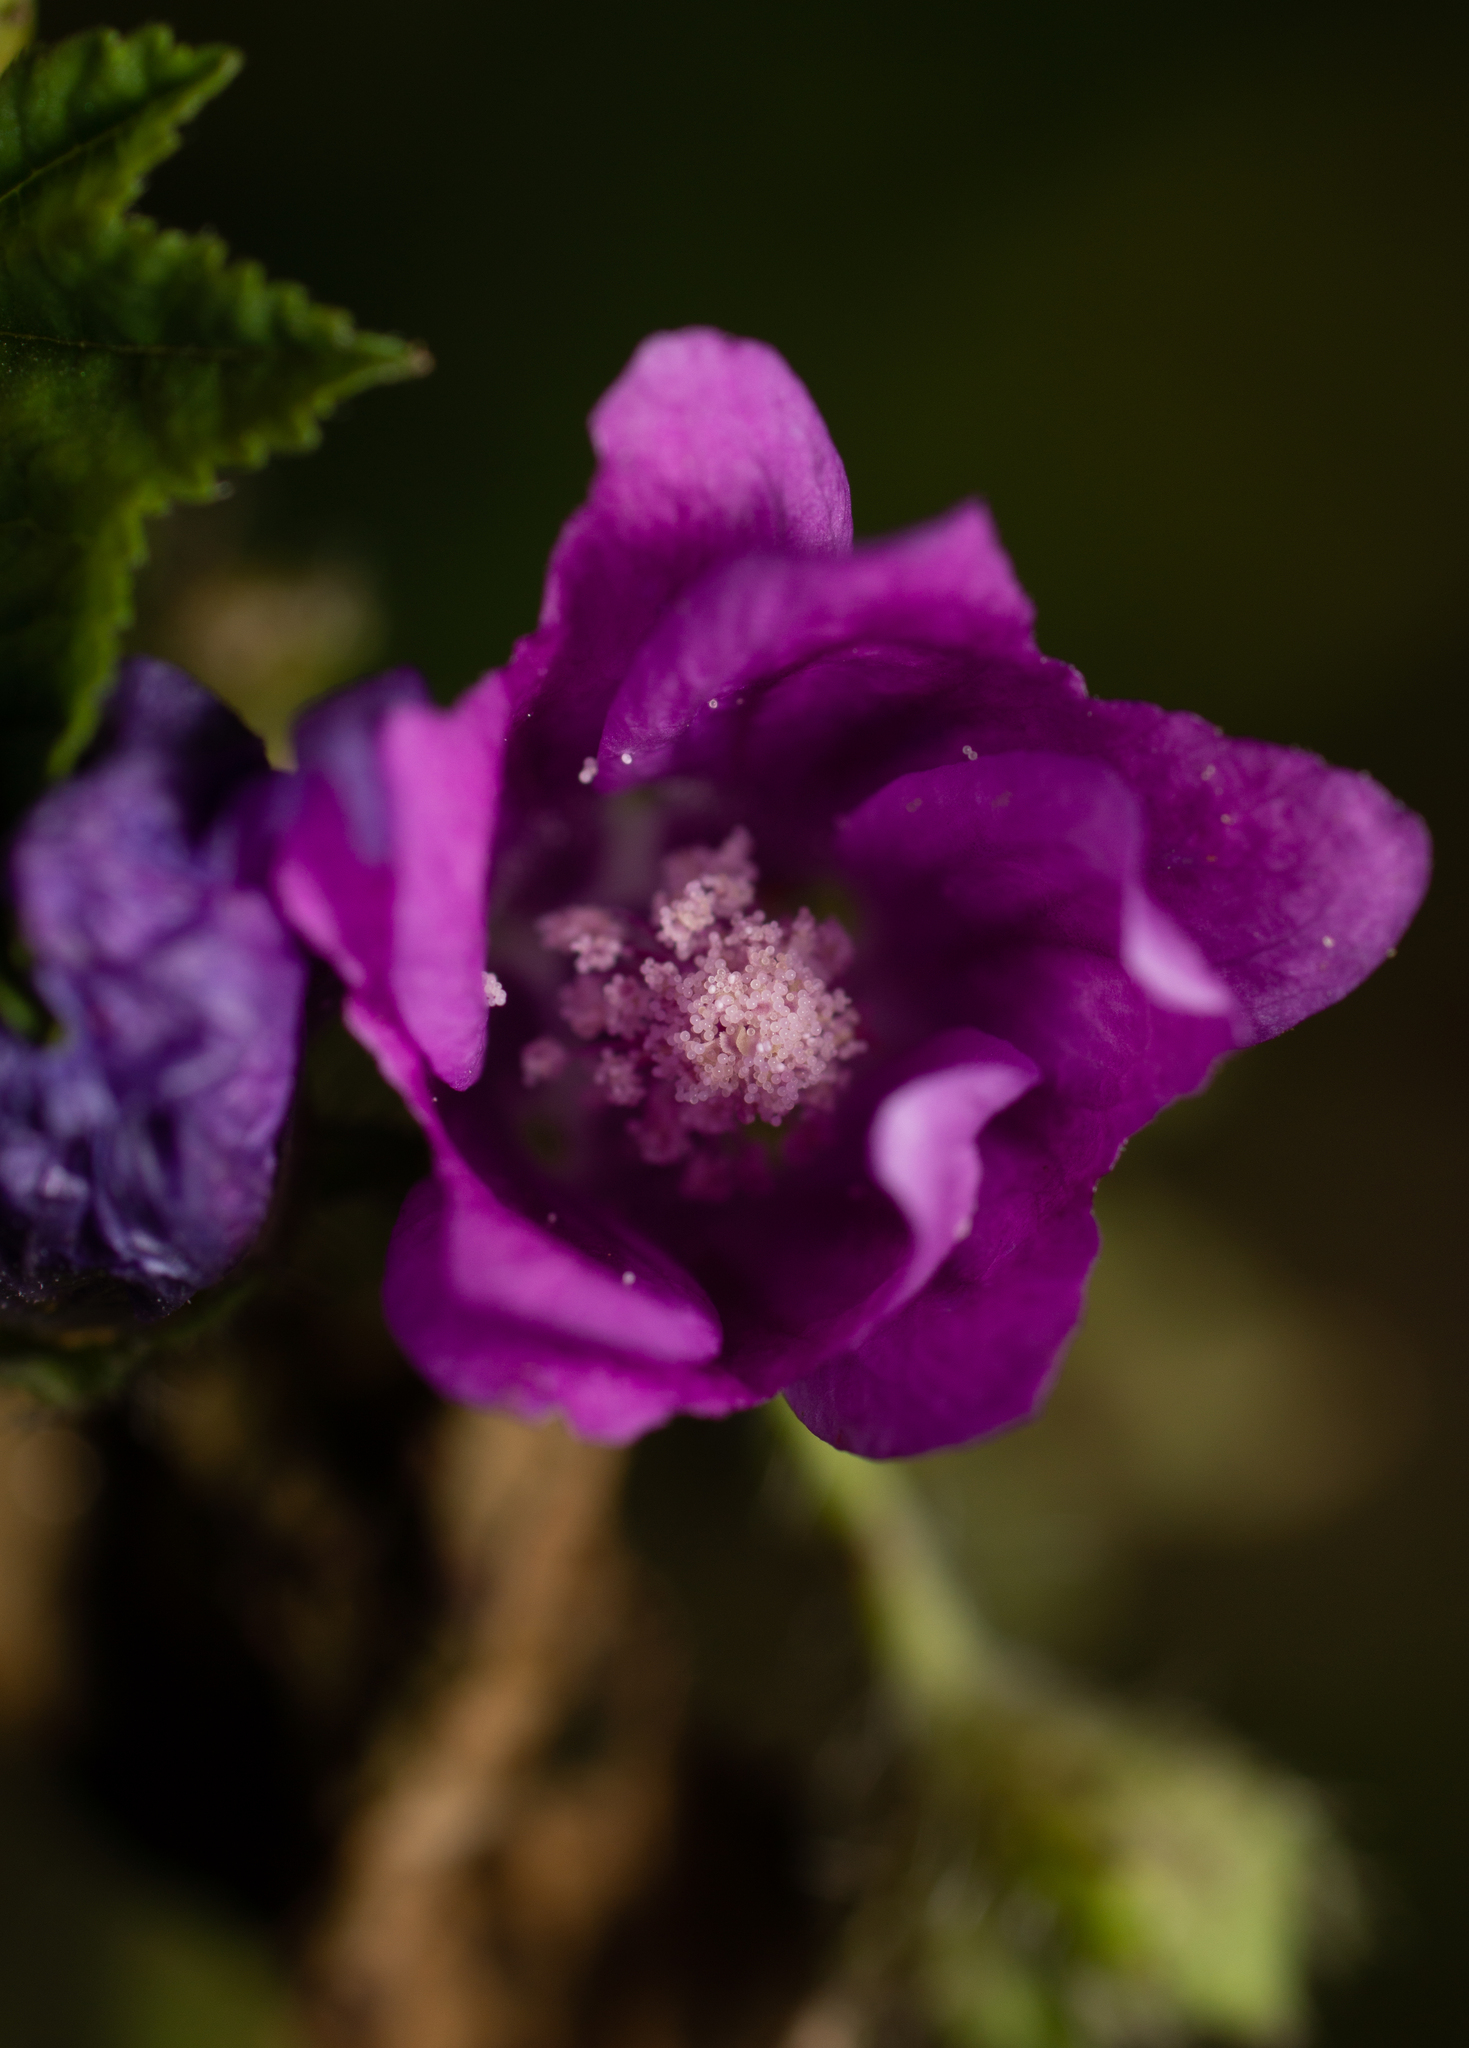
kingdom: Plantae
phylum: Tracheophyta
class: Magnoliopsida
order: Malvales
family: Malvaceae
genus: Malva
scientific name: Malva sylvestris
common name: Common mallow
